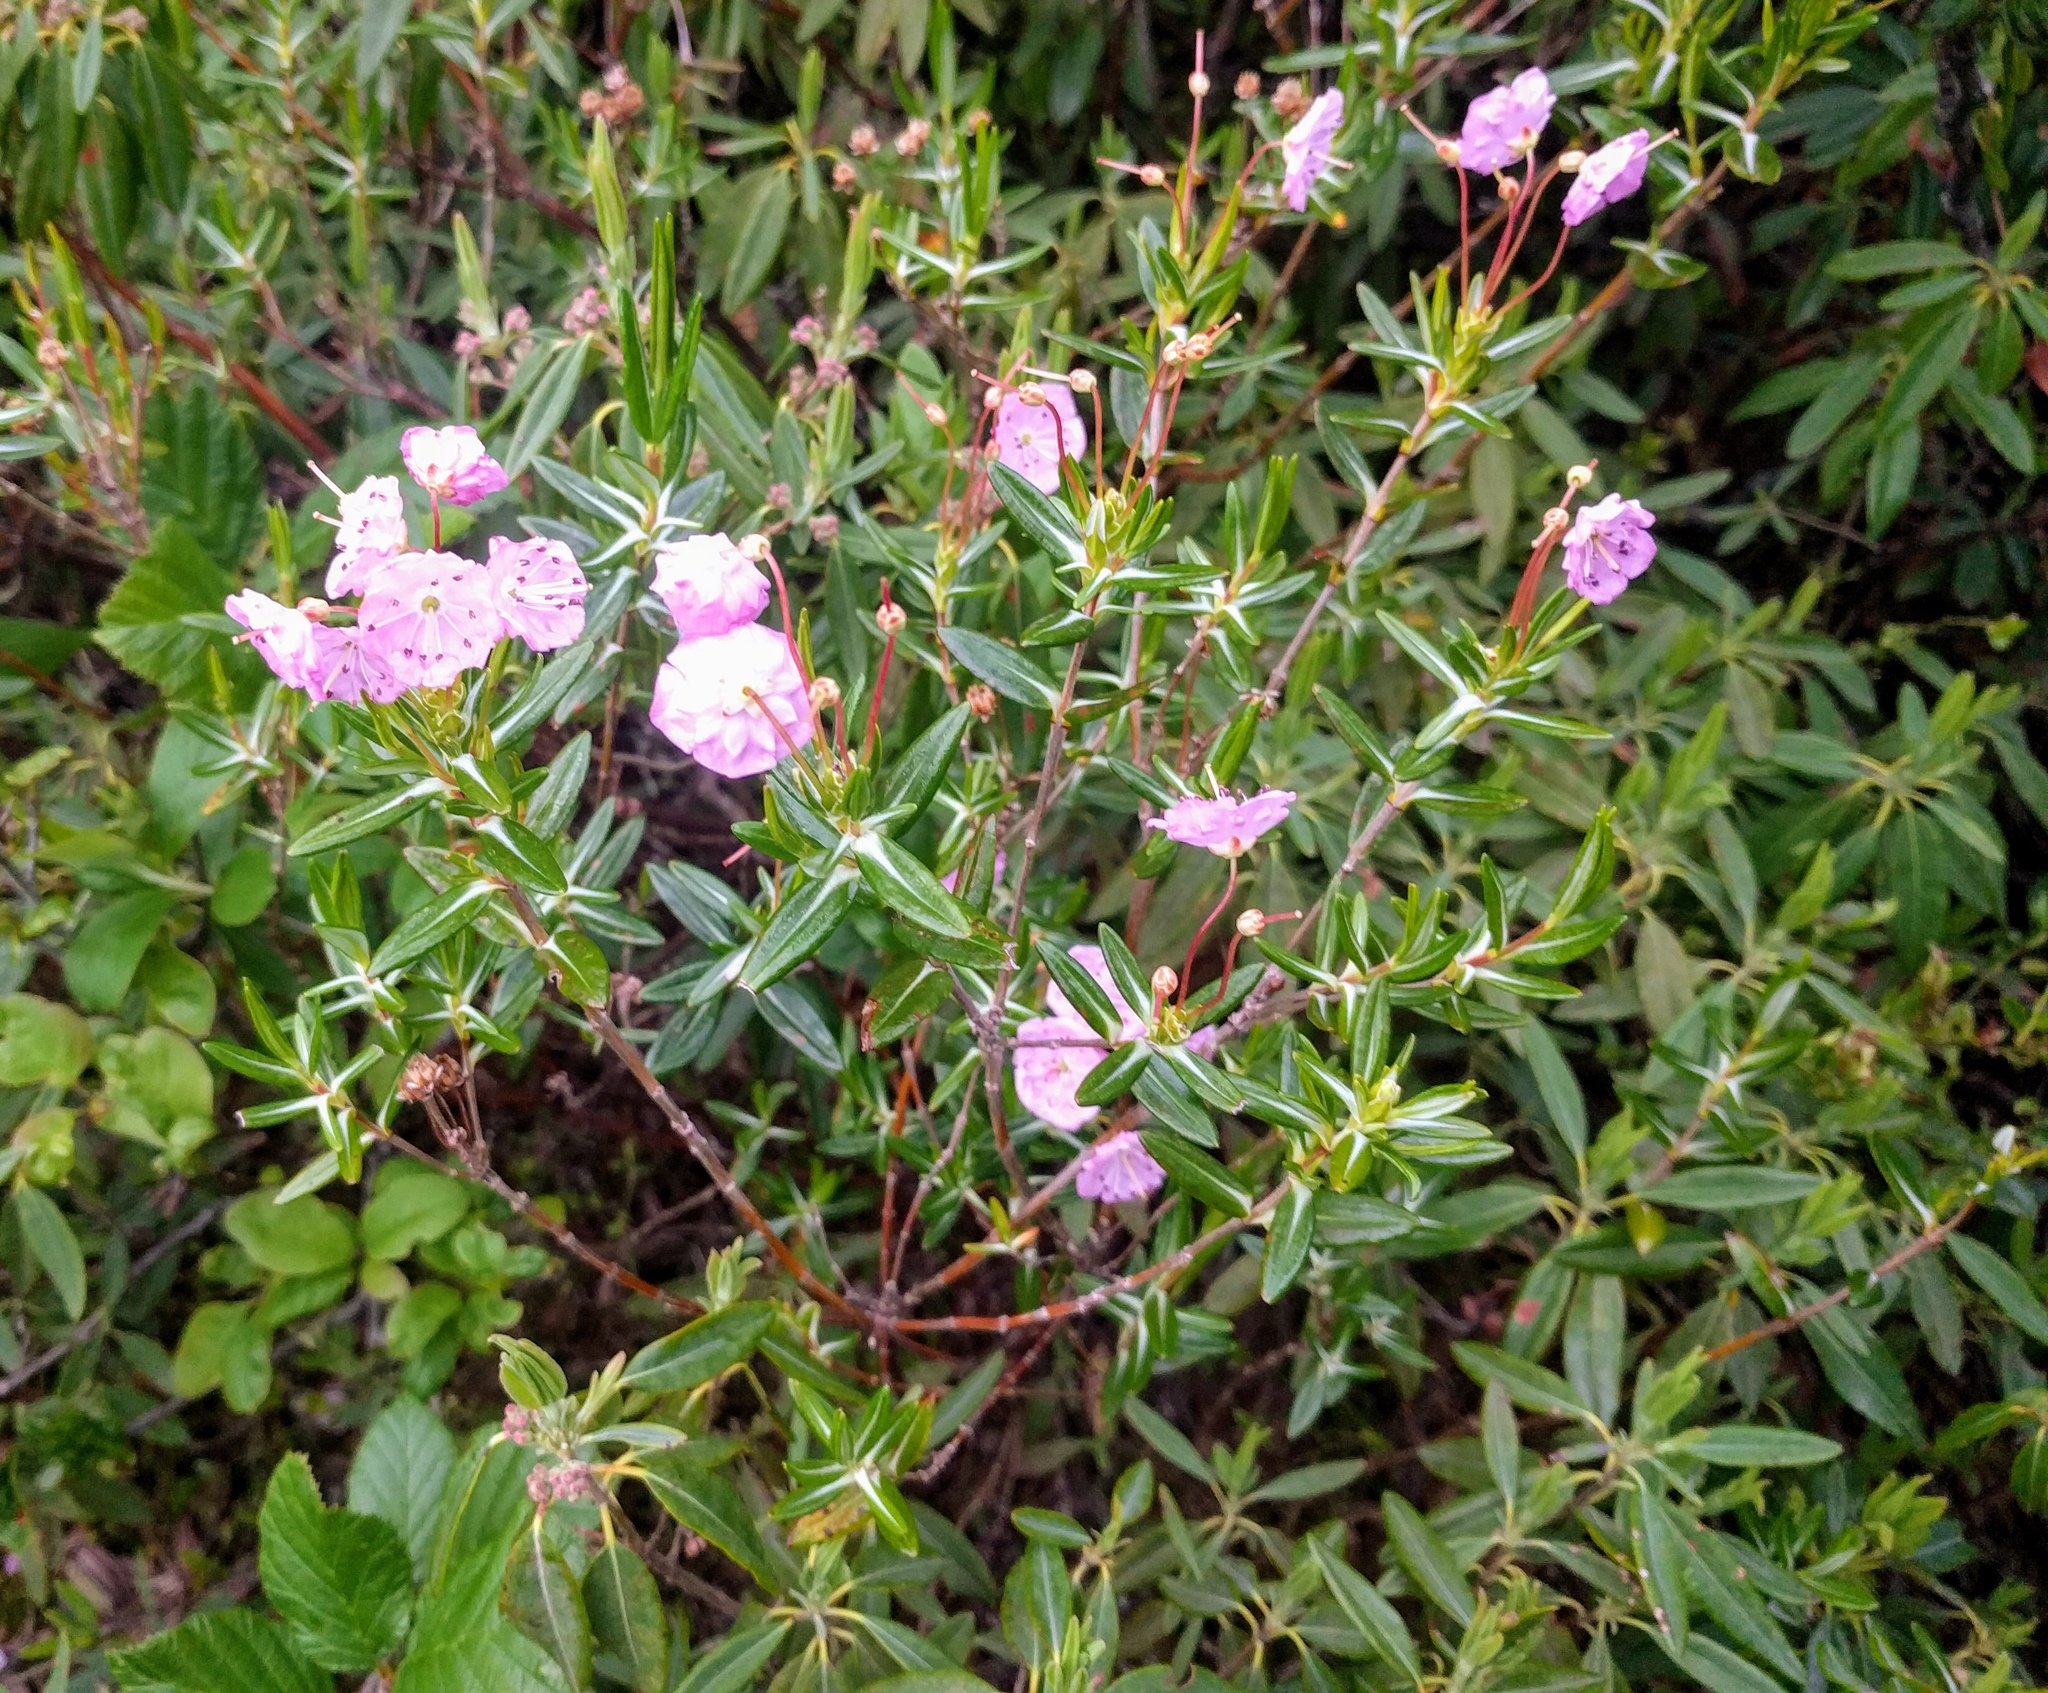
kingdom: Plantae
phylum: Tracheophyta
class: Magnoliopsida
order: Ericales
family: Ericaceae
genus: Kalmia
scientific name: Kalmia polifolia
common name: Bog-laurel
